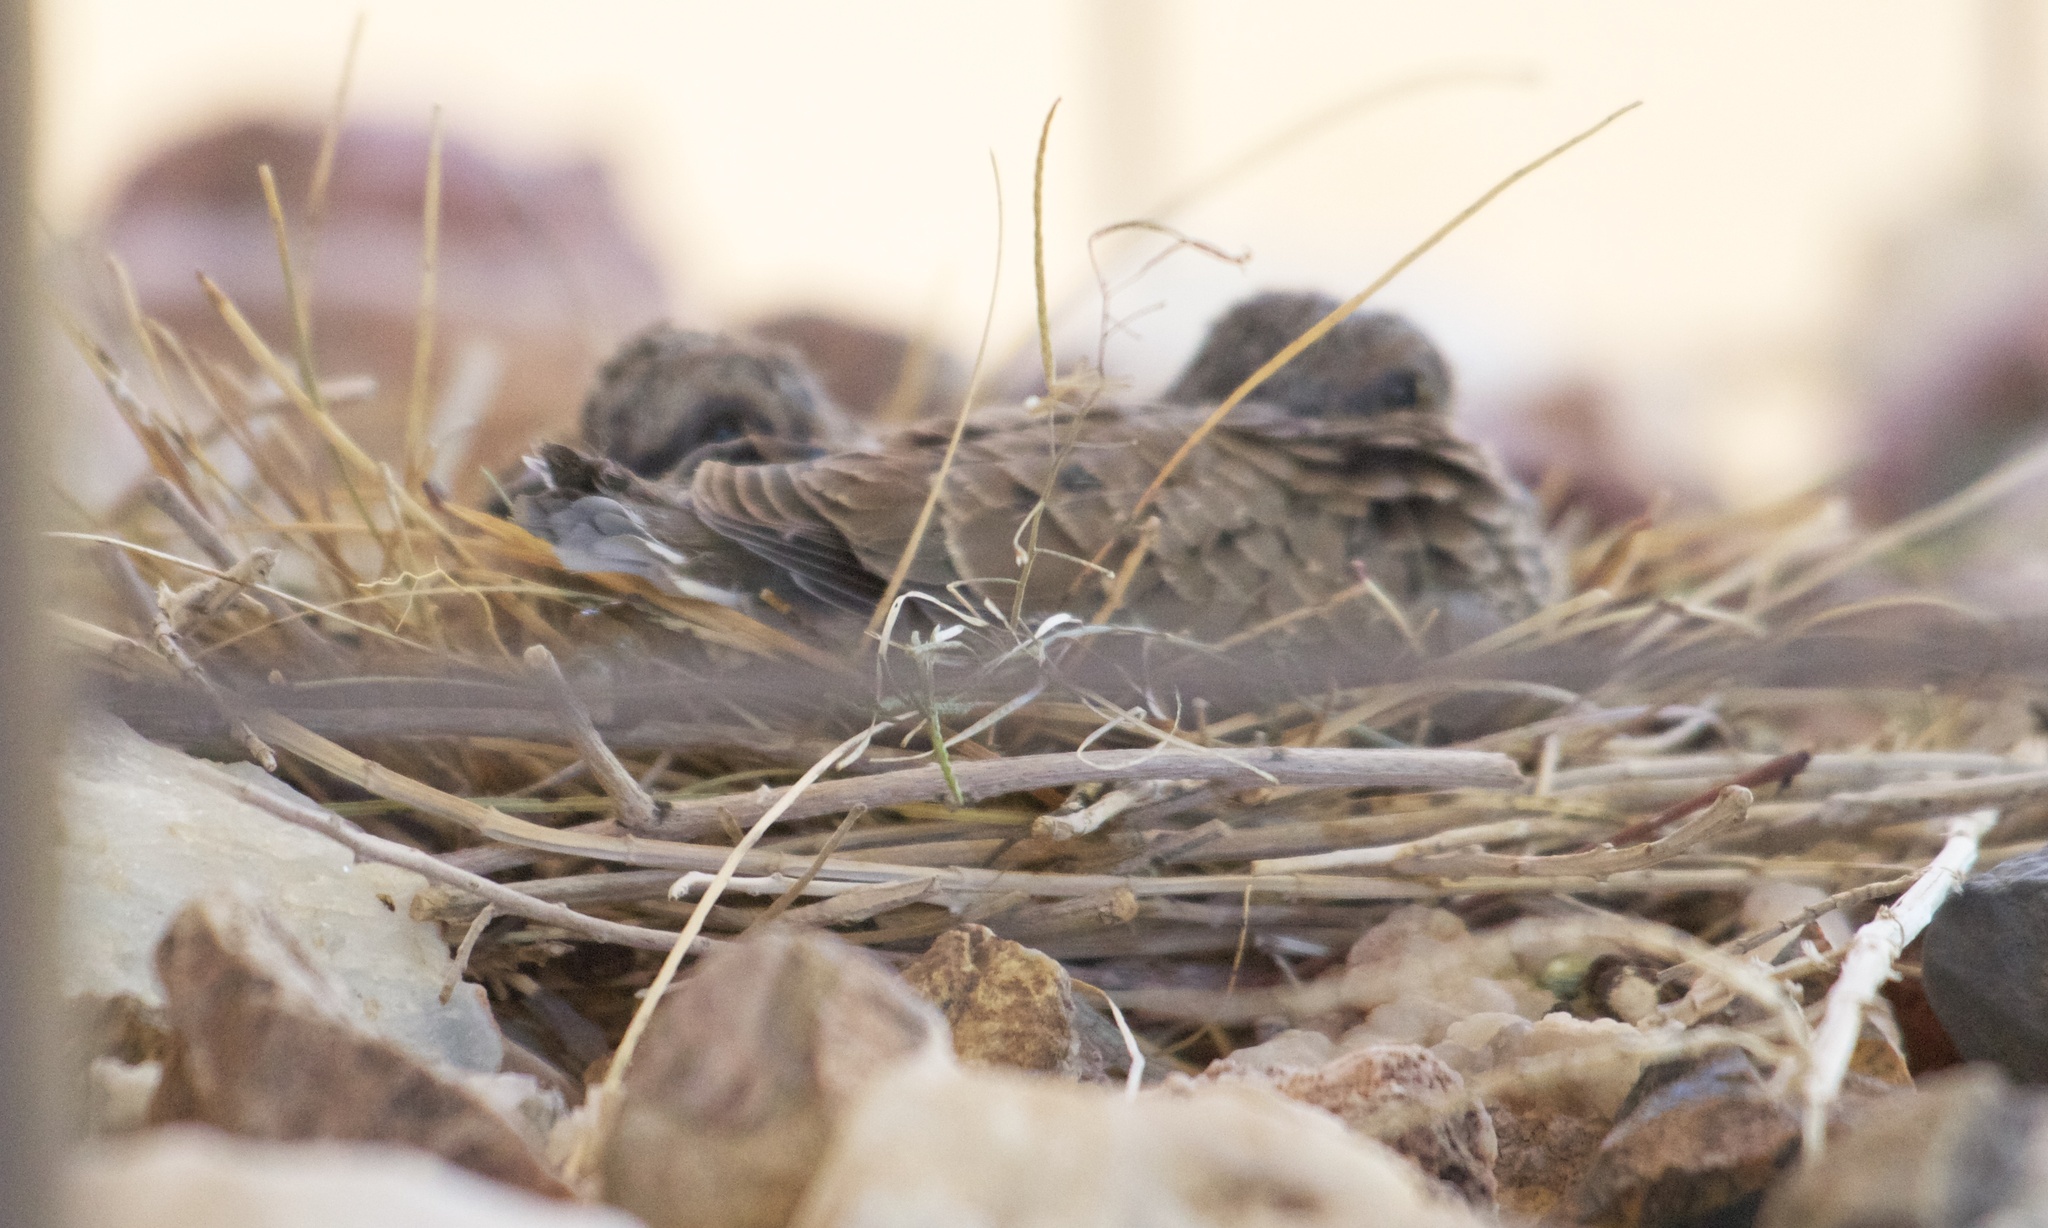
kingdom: Animalia
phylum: Chordata
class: Aves
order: Columbiformes
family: Columbidae
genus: Zenaida
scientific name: Zenaida macroura
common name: Mourning dove
